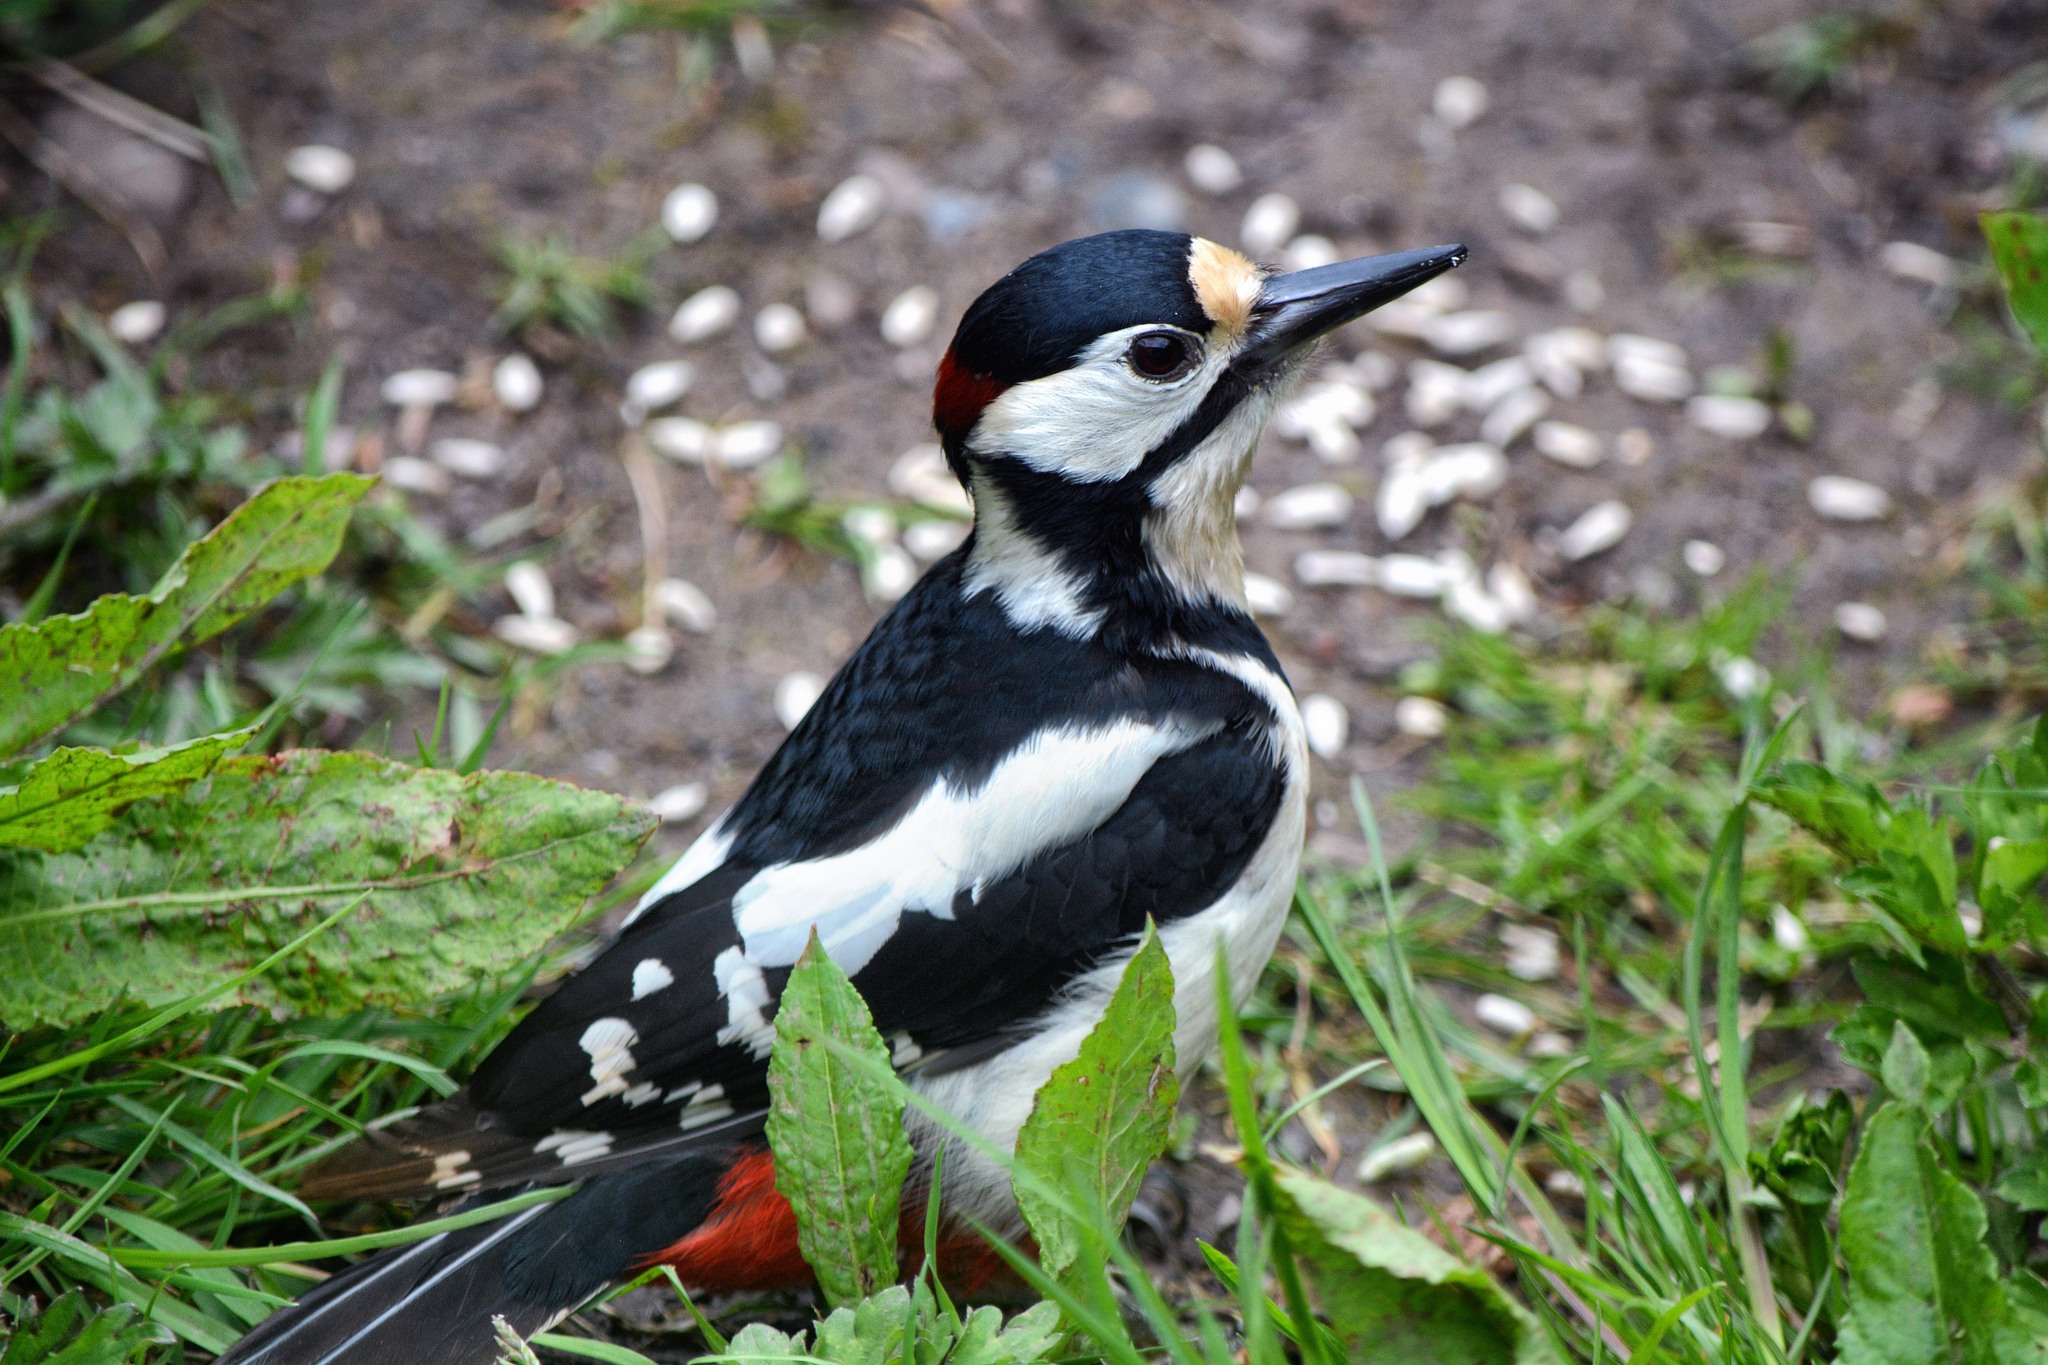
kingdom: Animalia
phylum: Chordata
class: Aves
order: Piciformes
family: Picidae
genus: Dendrocopos
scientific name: Dendrocopos major
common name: Great spotted woodpecker
